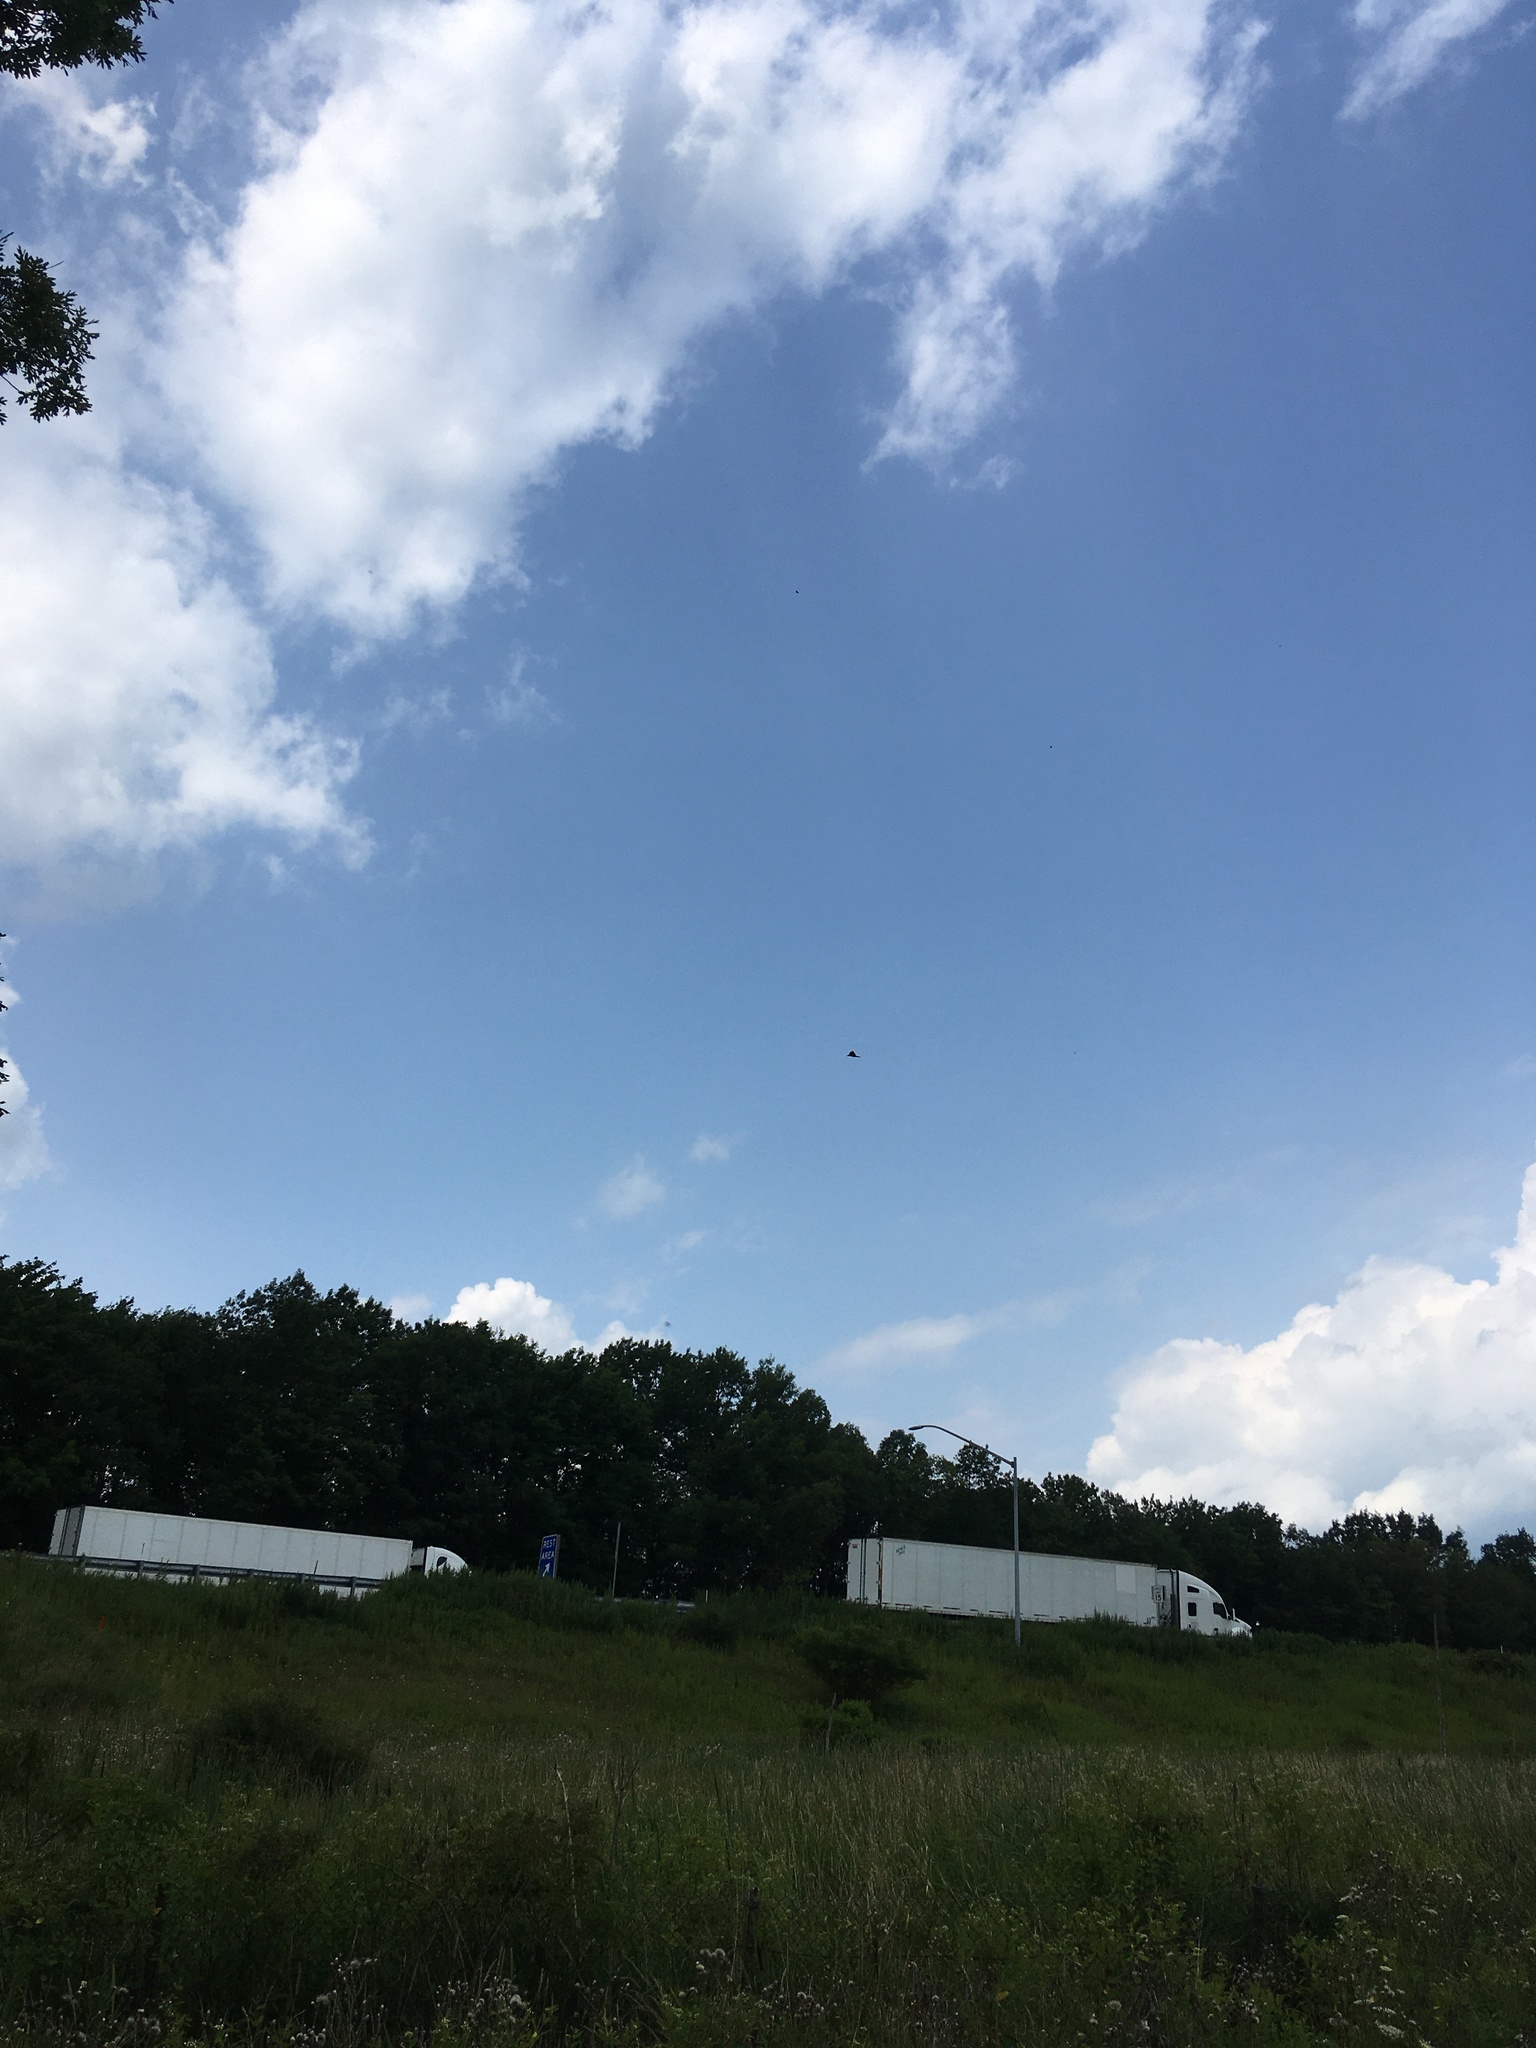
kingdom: Animalia
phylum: Chordata
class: Aves
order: Passeriformes
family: Corvidae
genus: Corvus
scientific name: Corvus corax
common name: Common raven
